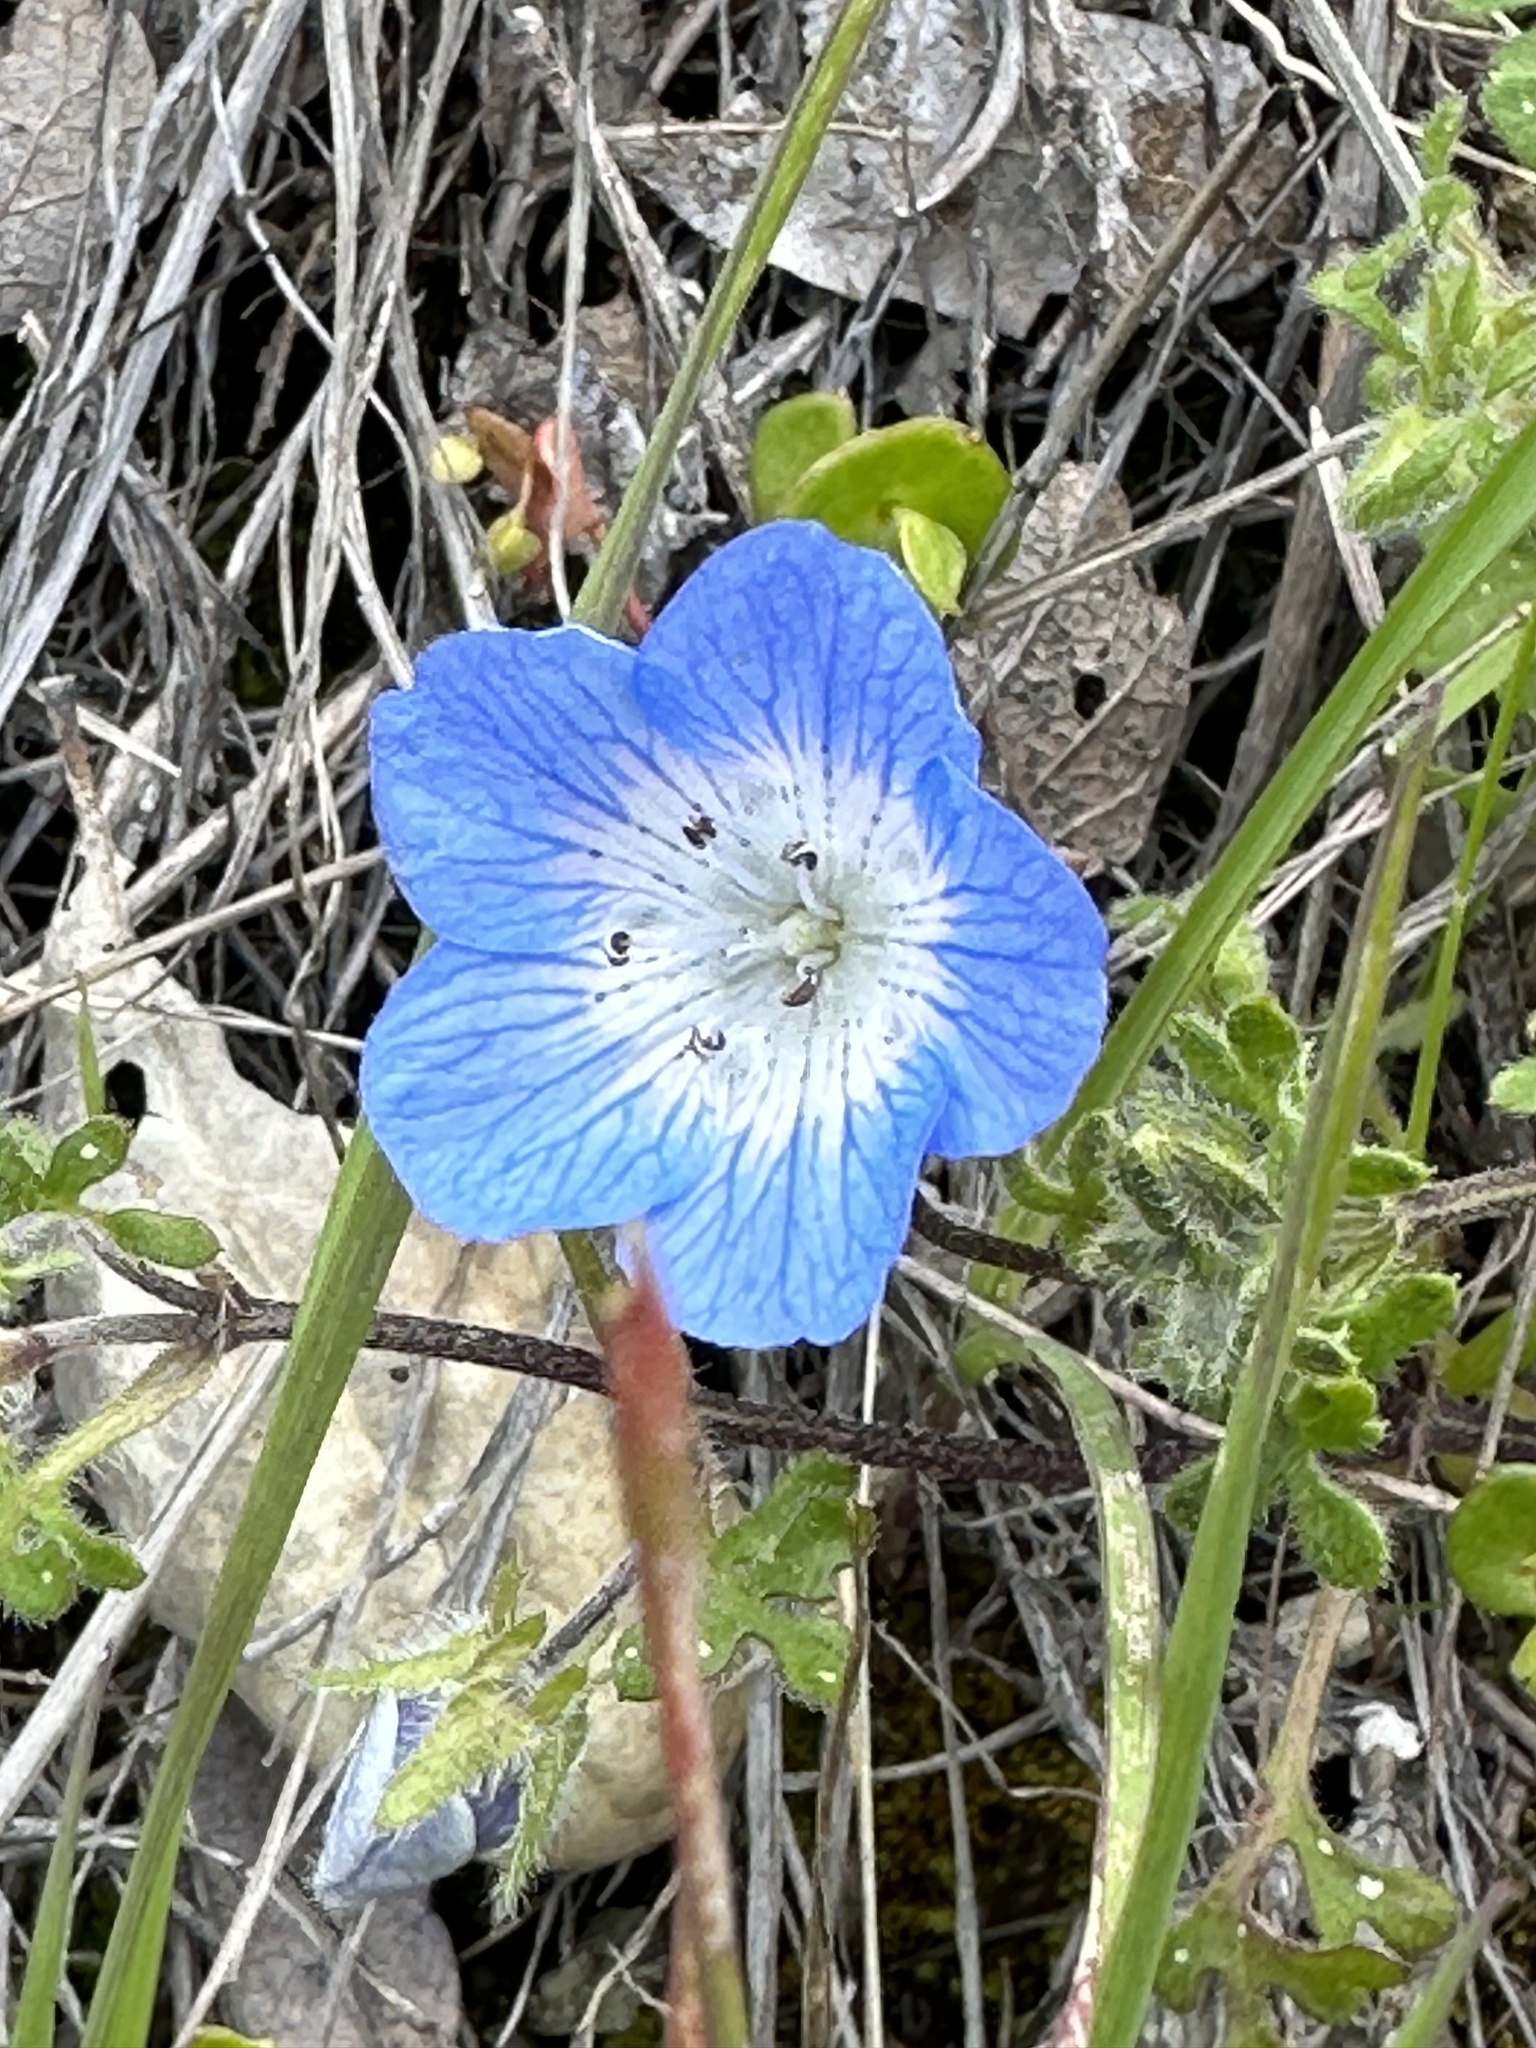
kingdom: Plantae
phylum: Tracheophyta
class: Magnoliopsida
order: Boraginales
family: Hydrophyllaceae
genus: Nemophila
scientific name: Nemophila menziesii
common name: Baby's-blue-eyes
